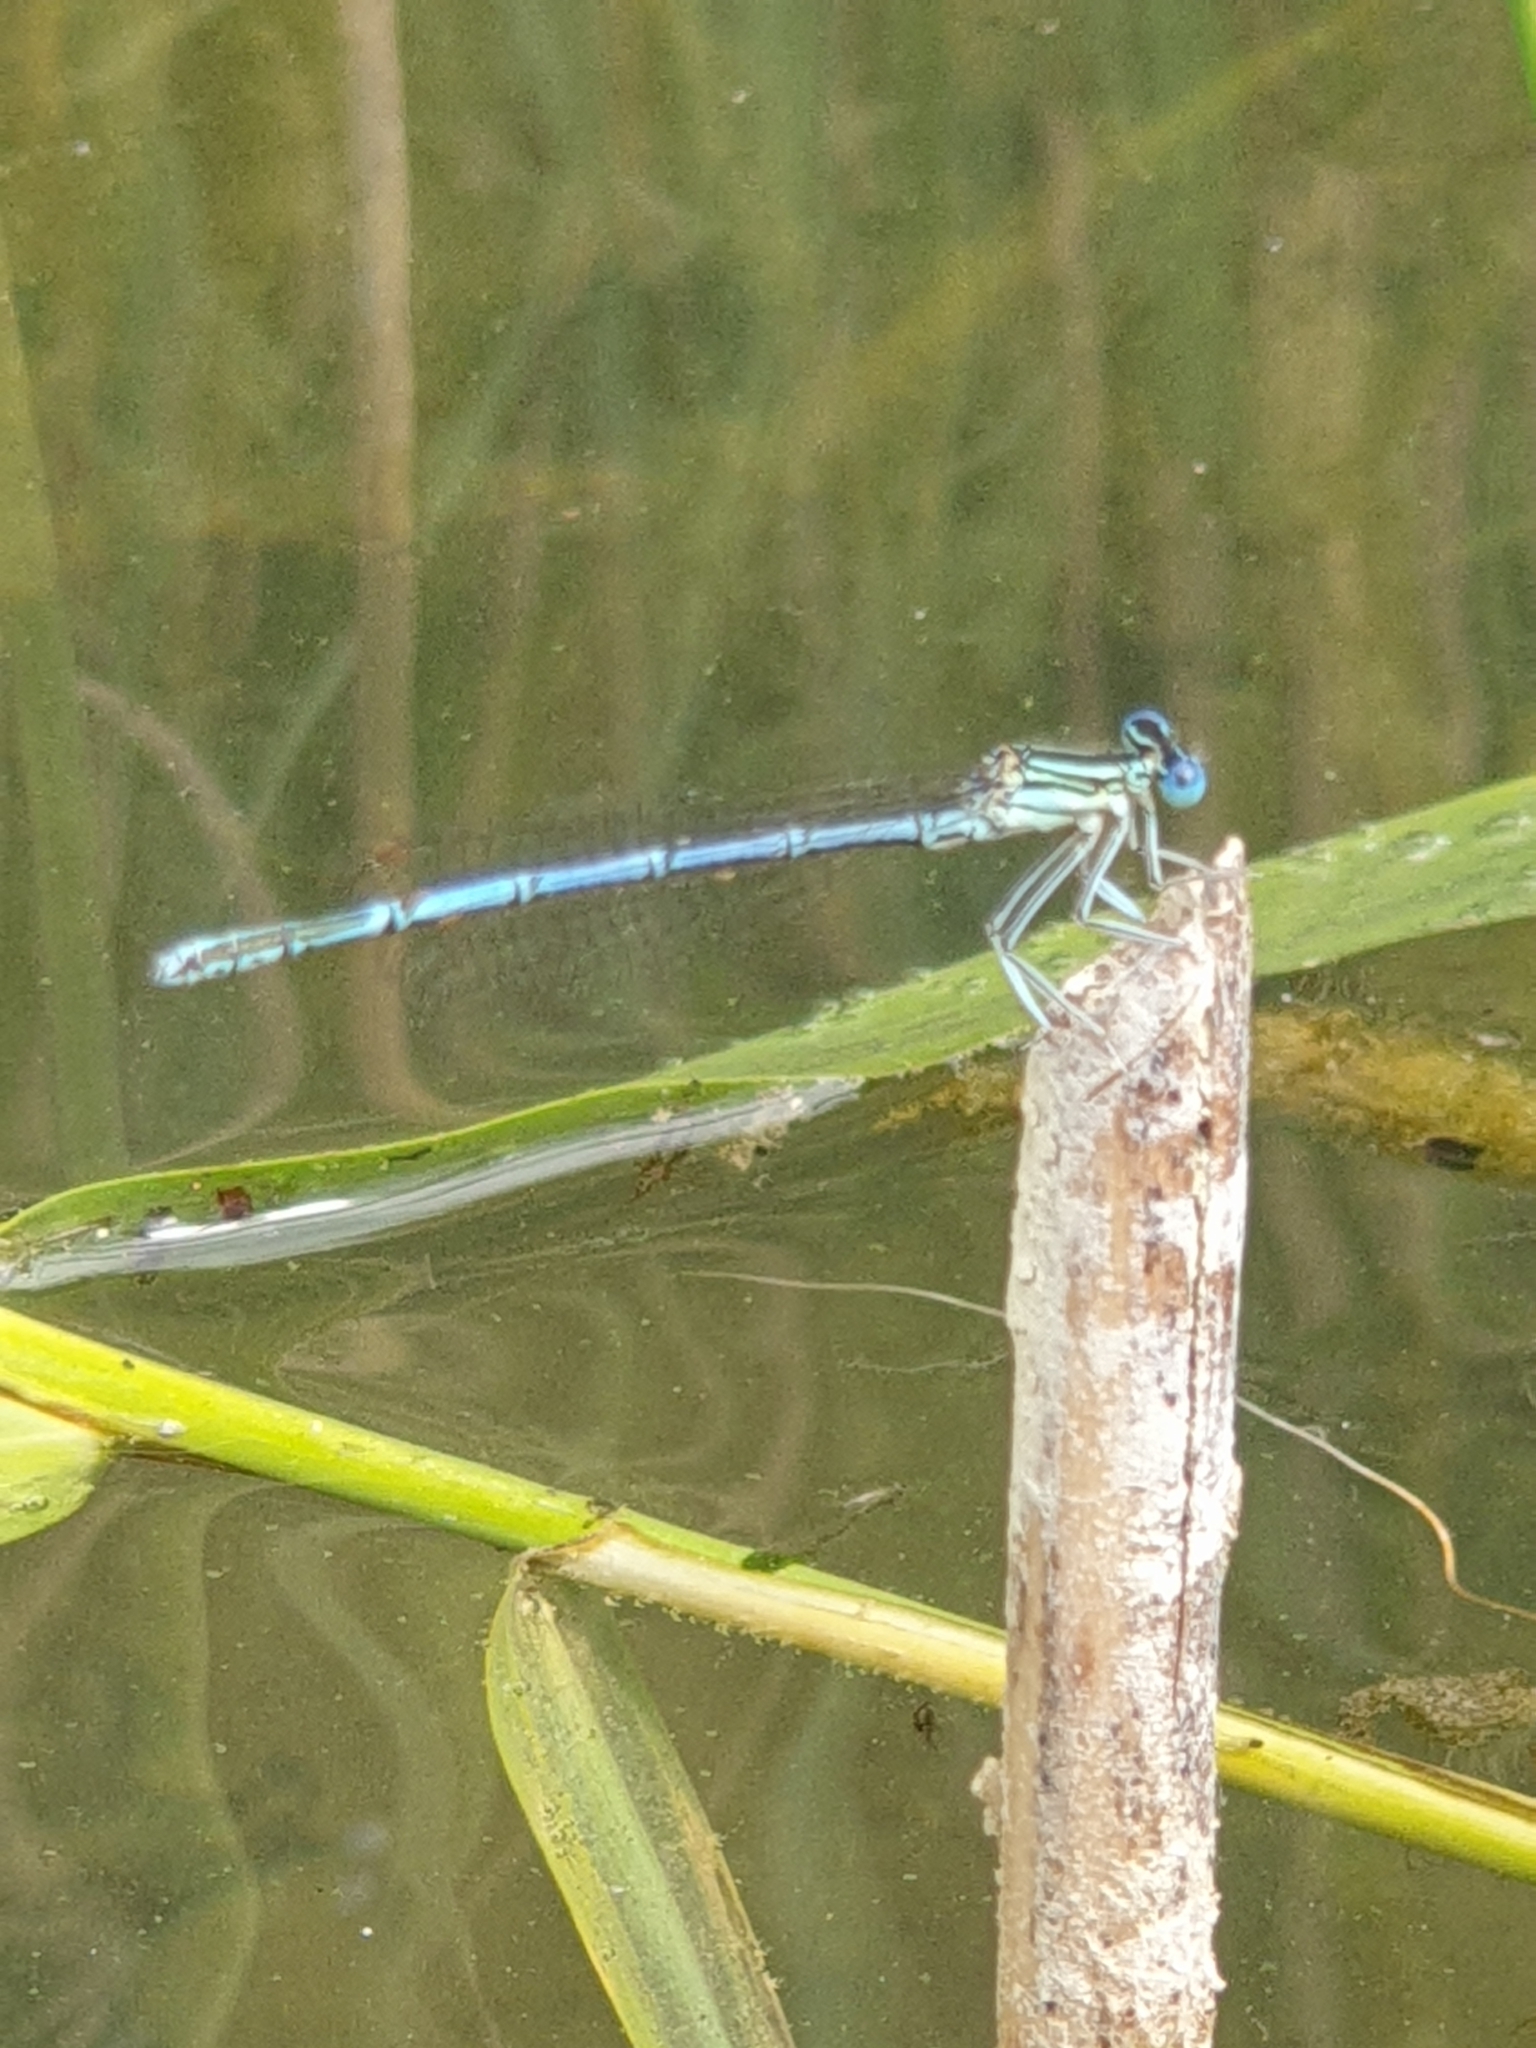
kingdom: Animalia
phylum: Arthropoda
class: Insecta
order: Odonata
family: Platycnemididae
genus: Platycnemis
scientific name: Platycnemis pennipes
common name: White-legged damselfly
